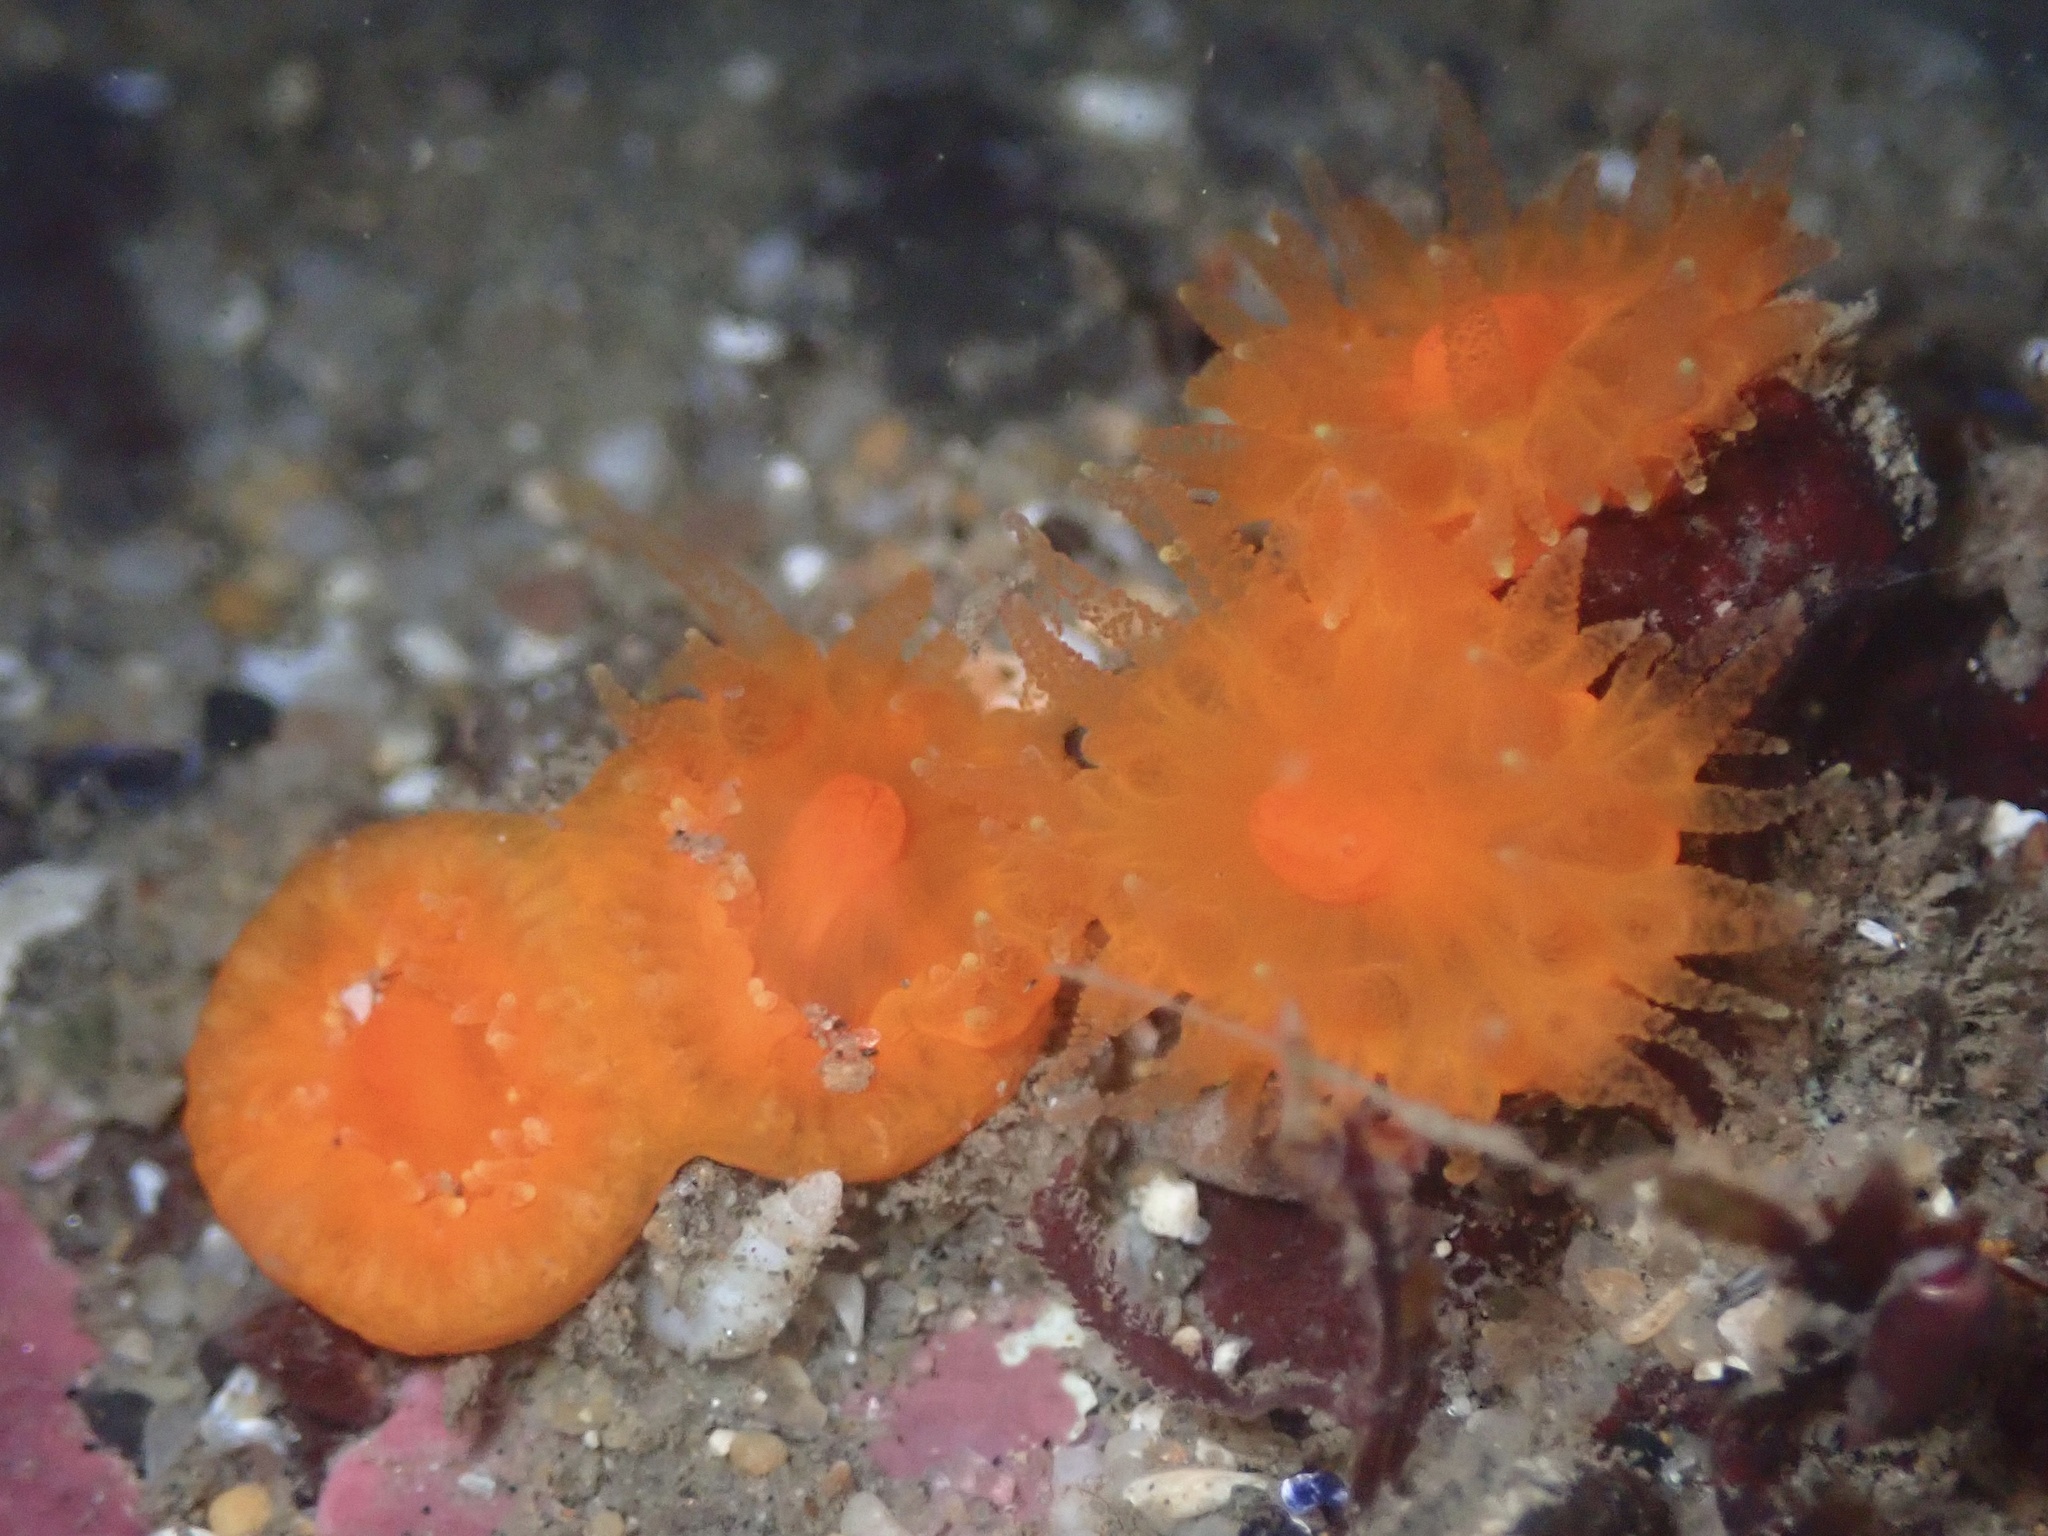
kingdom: Animalia
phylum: Cnidaria
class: Anthozoa
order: Scleractinia
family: Dendrophylliidae
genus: Balanophyllia
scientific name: Balanophyllia elegans
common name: Orange stony coral
